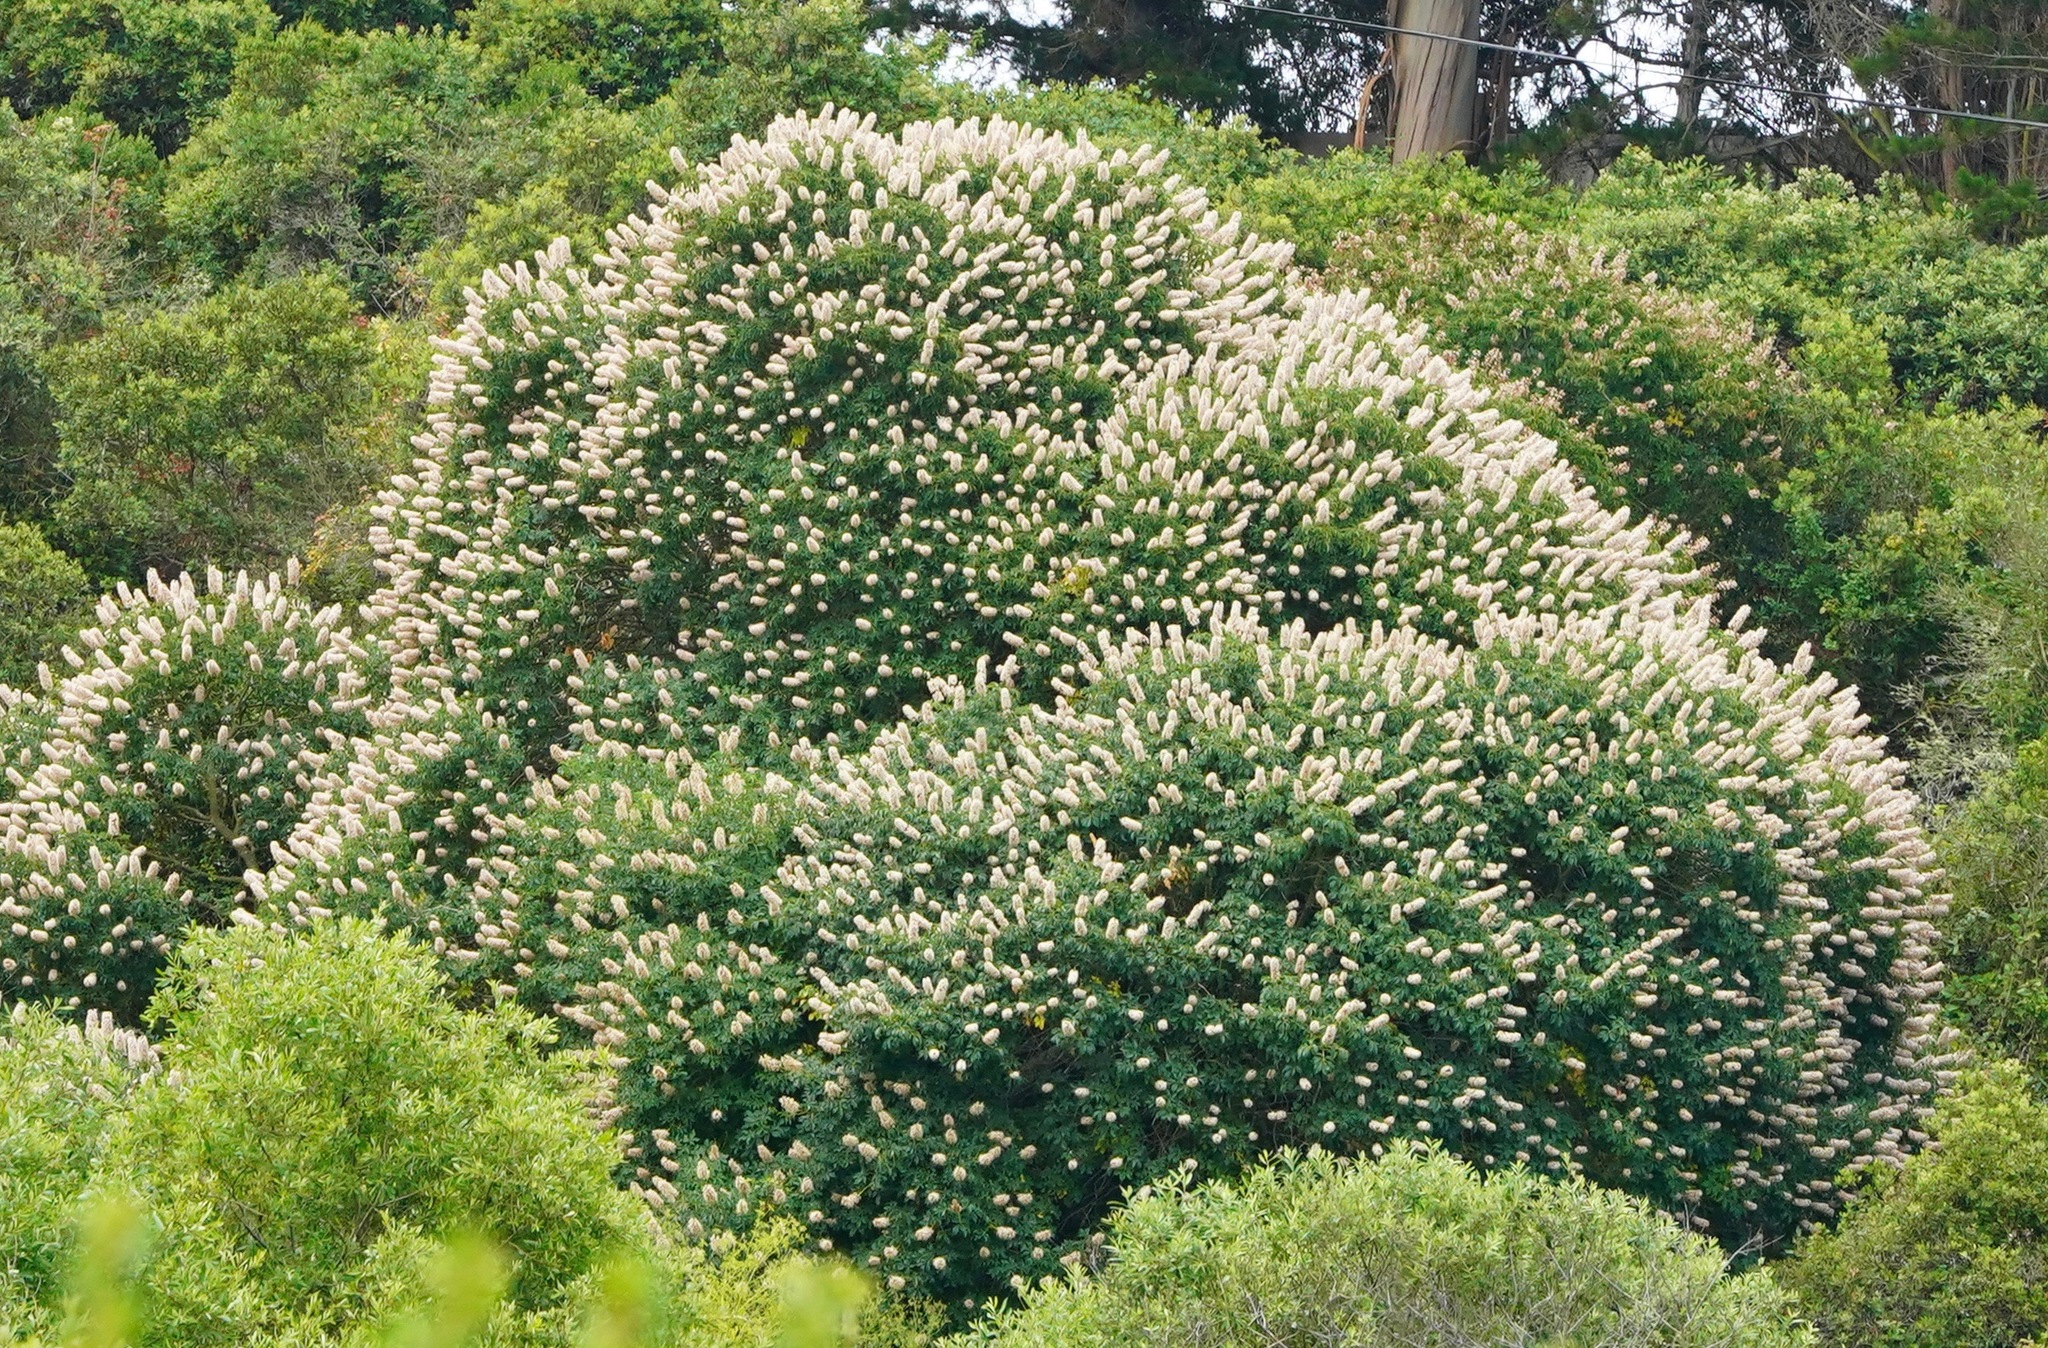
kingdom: Plantae
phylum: Tracheophyta
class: Magnoliopsida
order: Sapindales
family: Sapindaceae
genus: Aesculus
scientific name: Aesculus californica
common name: California buckeye
